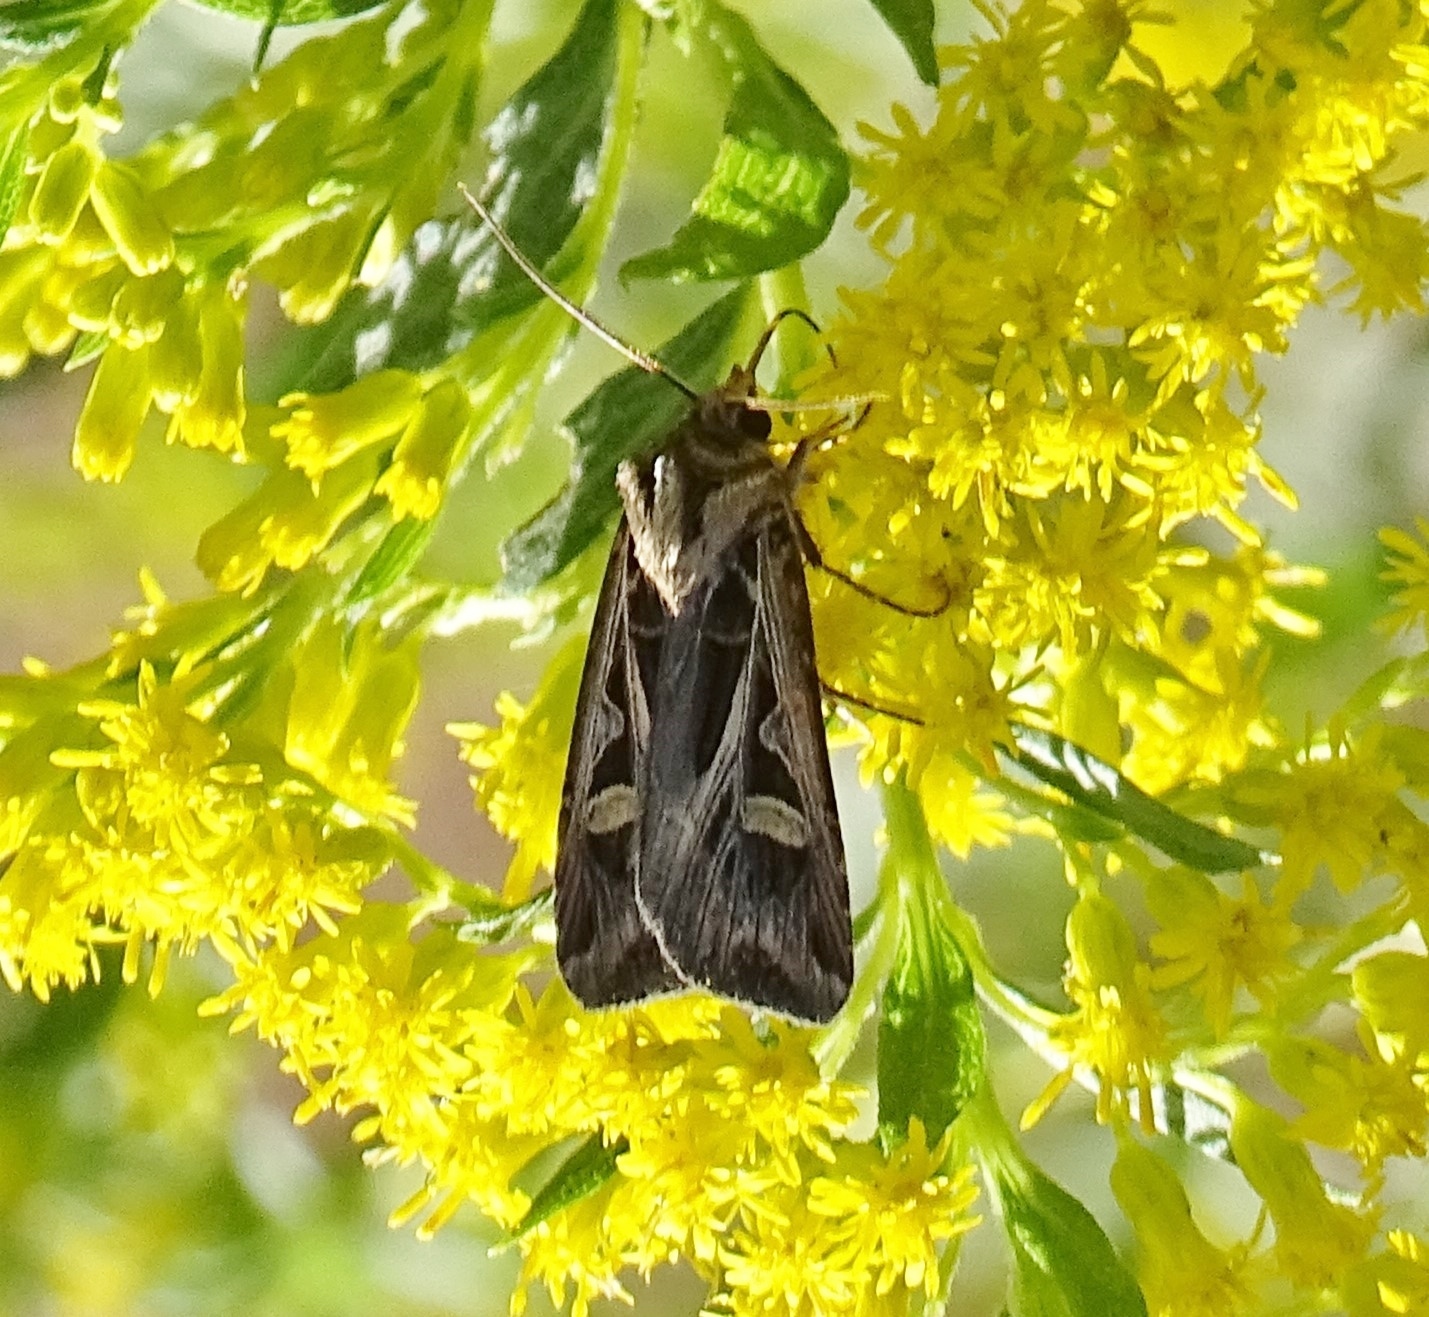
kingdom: Animalia
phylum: Arthropoda
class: Insecta
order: Lepidoptera
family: Noctuidae
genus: Feltia
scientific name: Feltia jaculifera
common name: Dingy cutworm moth
